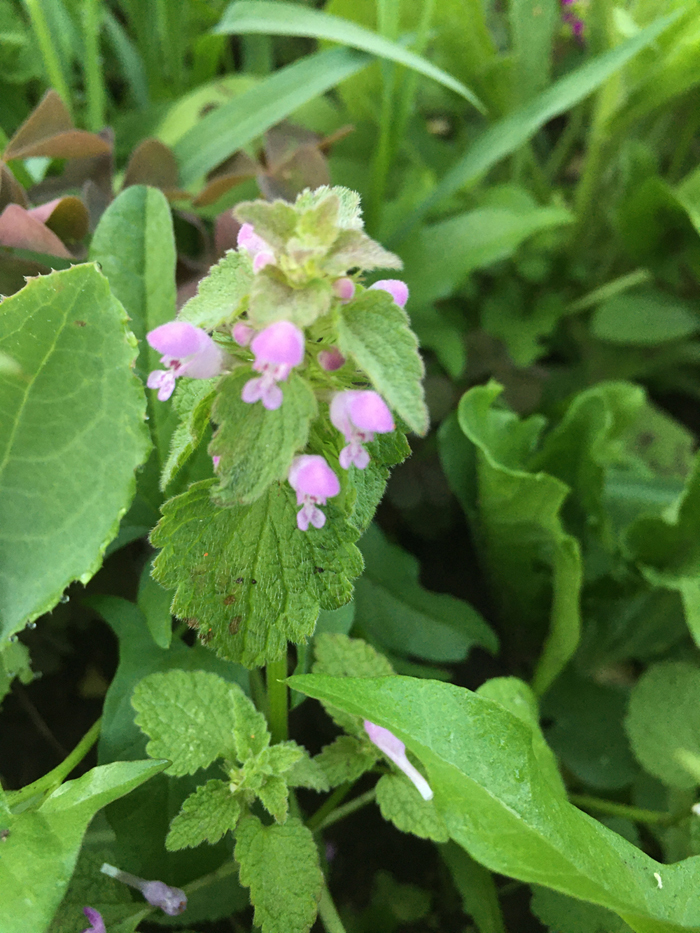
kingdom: Plantae
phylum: Tracheophyta
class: Magnoliopsida
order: Lamiales
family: Lamiaceae
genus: Lamium
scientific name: Lamium purpureum
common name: Red dead-nettle
